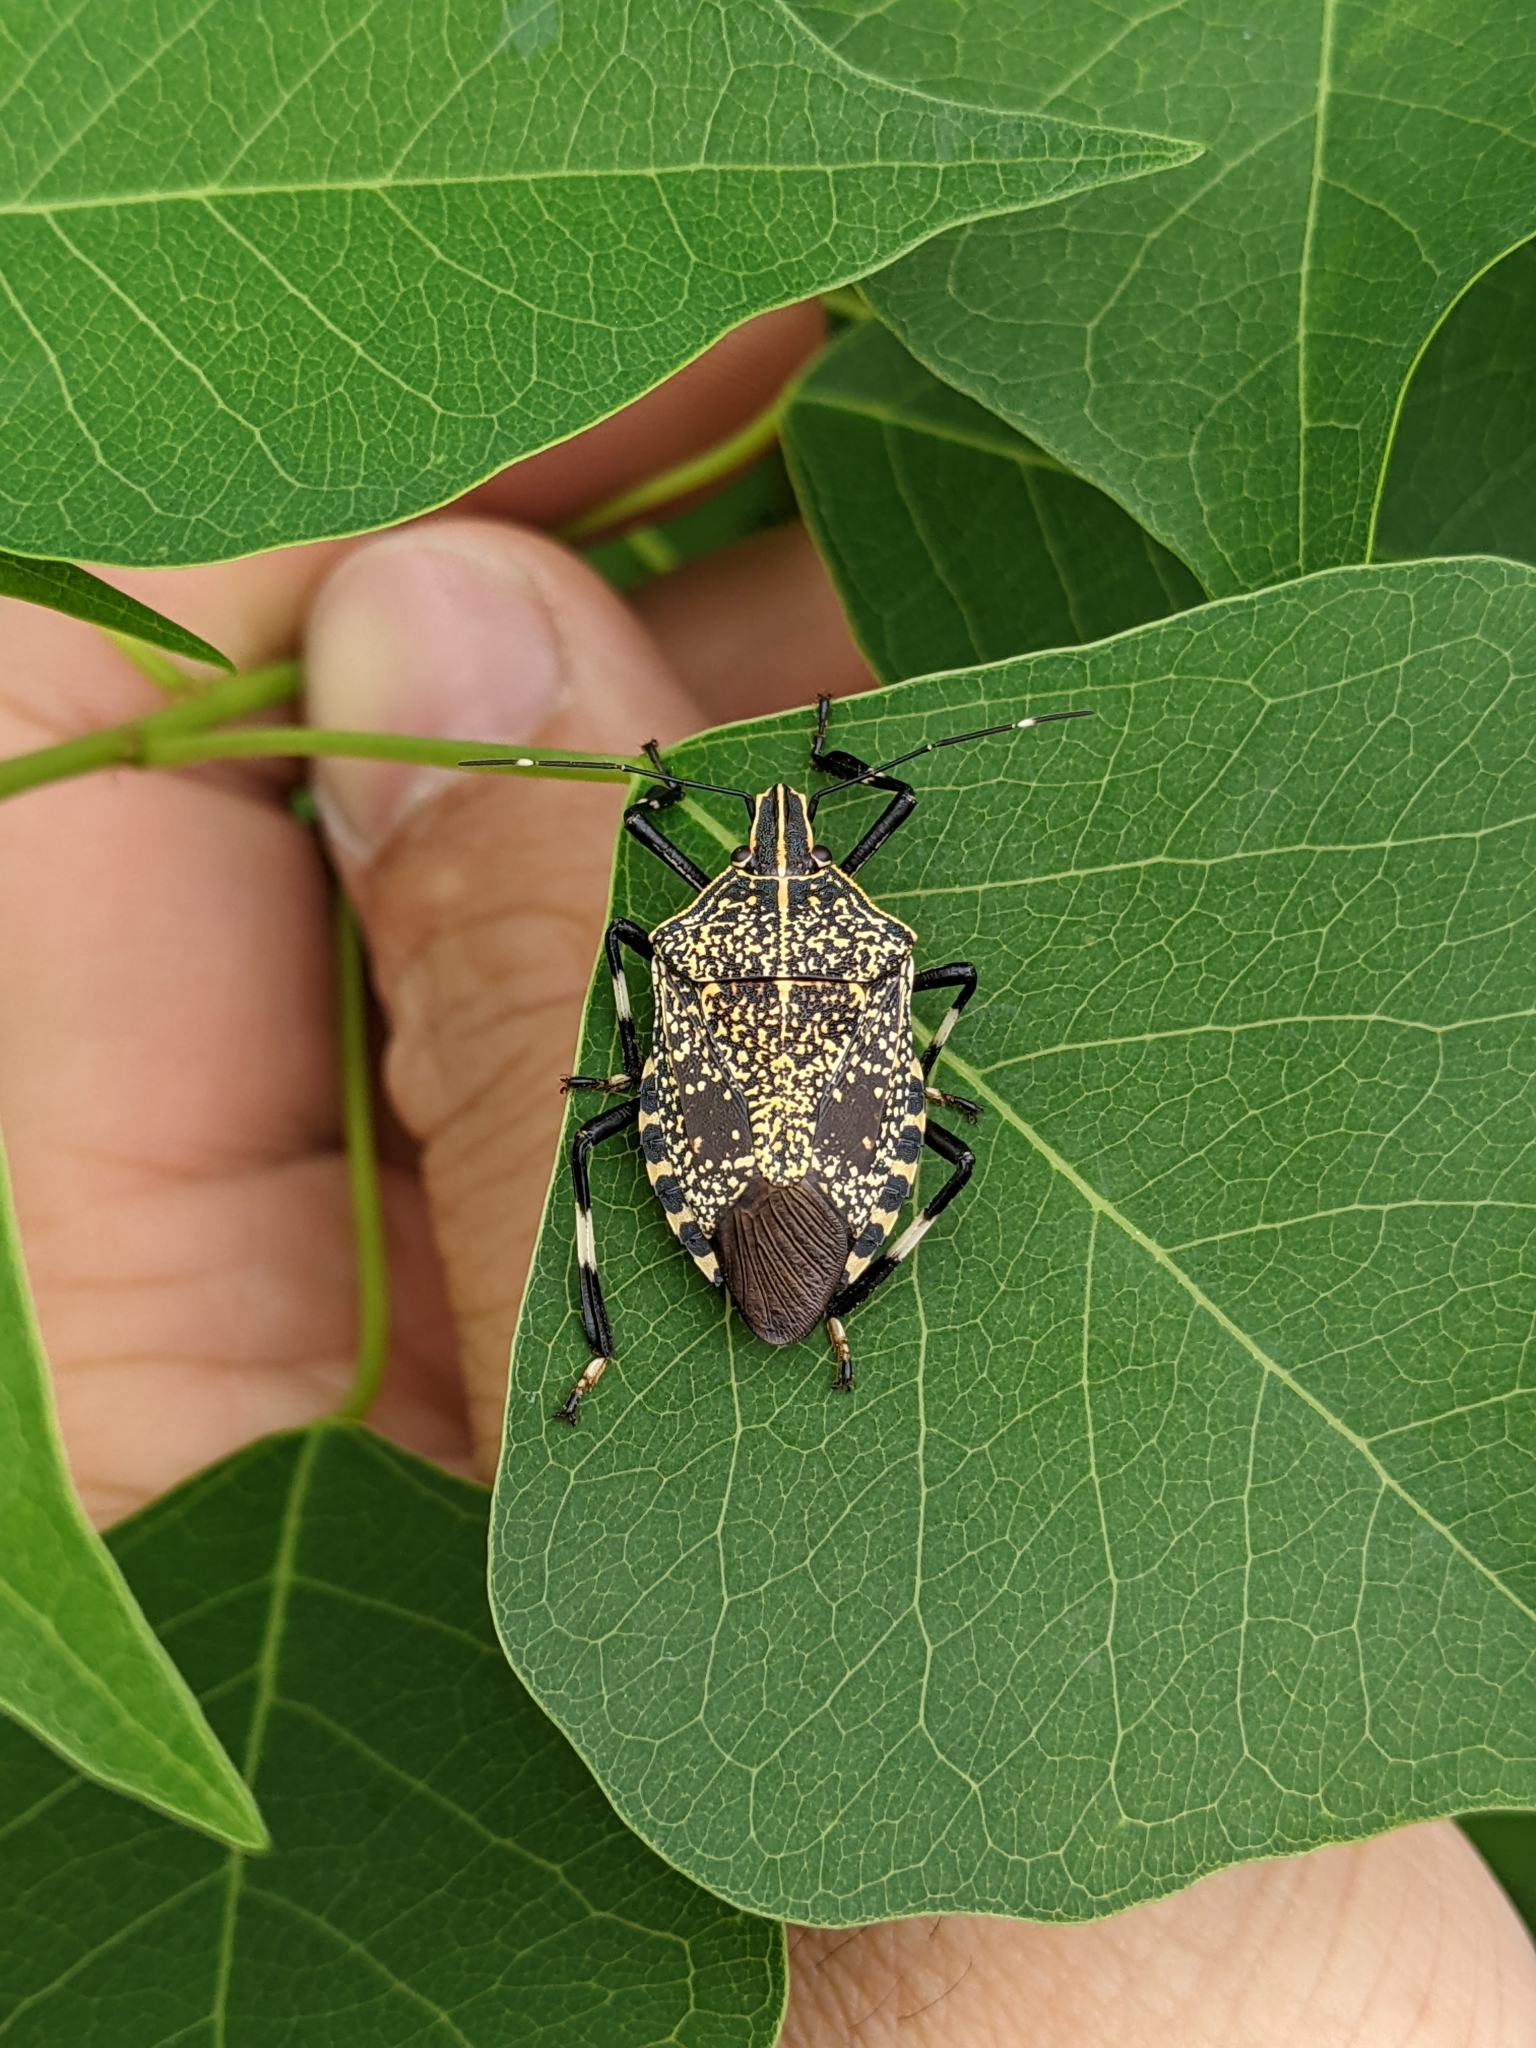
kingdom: Animalia
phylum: Arthropoda
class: Insecta
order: Hemiptera
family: Pentatomidae
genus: Erthesina
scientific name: Erthesina fullo
